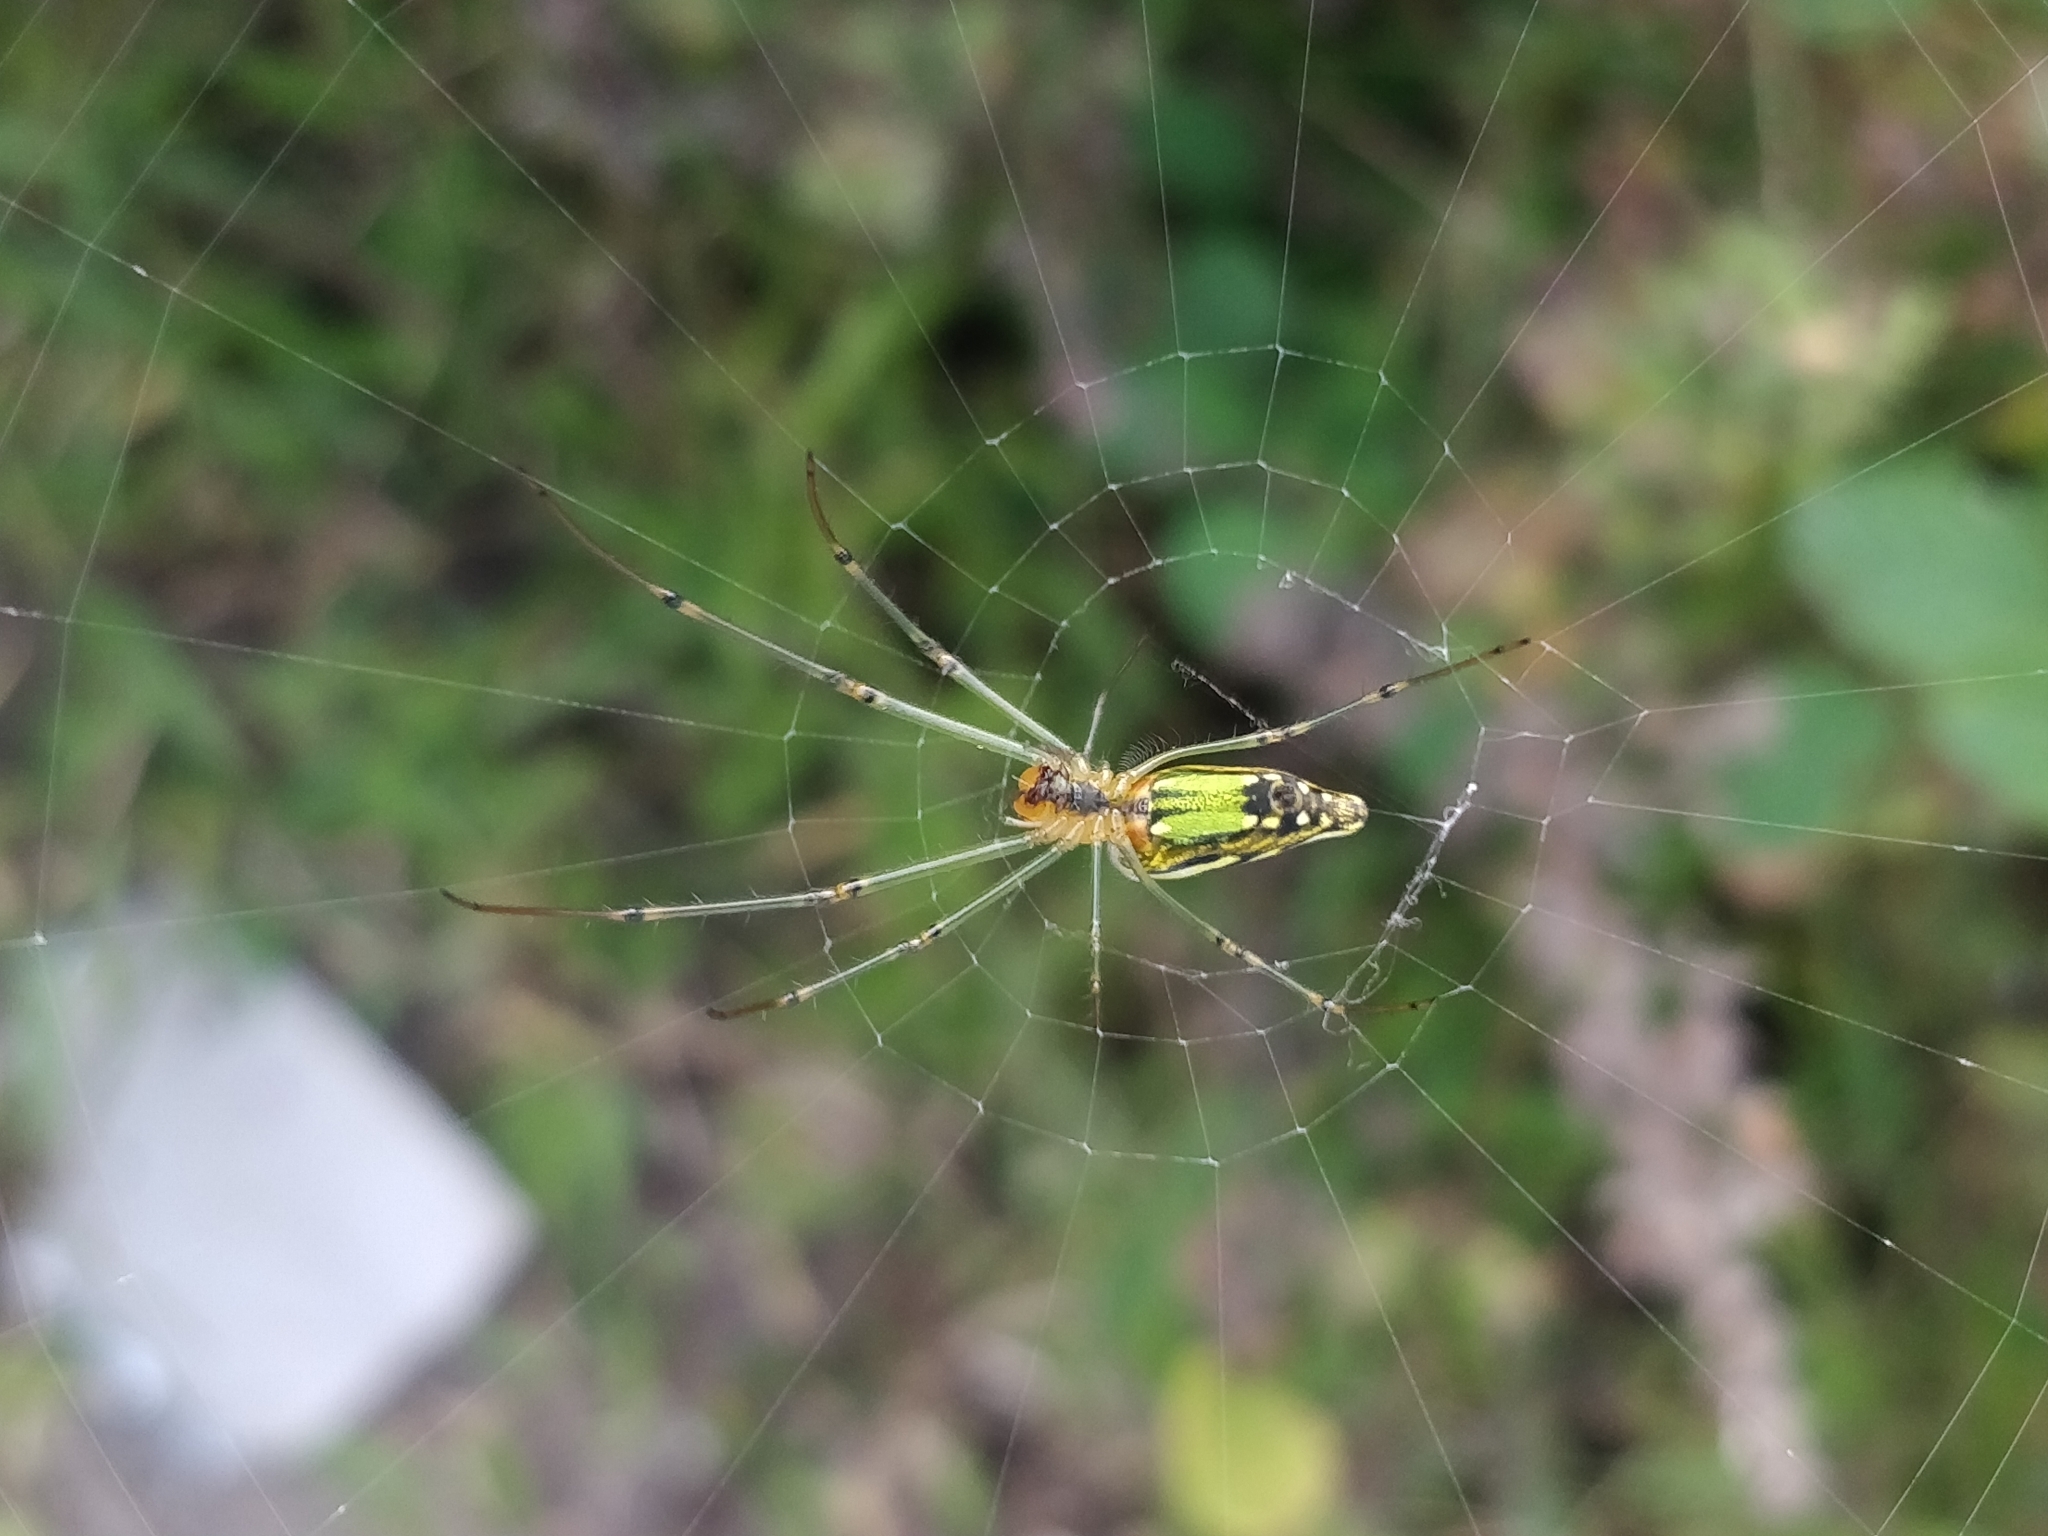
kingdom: Animalia
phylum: Arthropoda
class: Arachnida
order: Araneae
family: Tetragnathidae
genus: Leucauge
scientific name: Leucauge decorata
